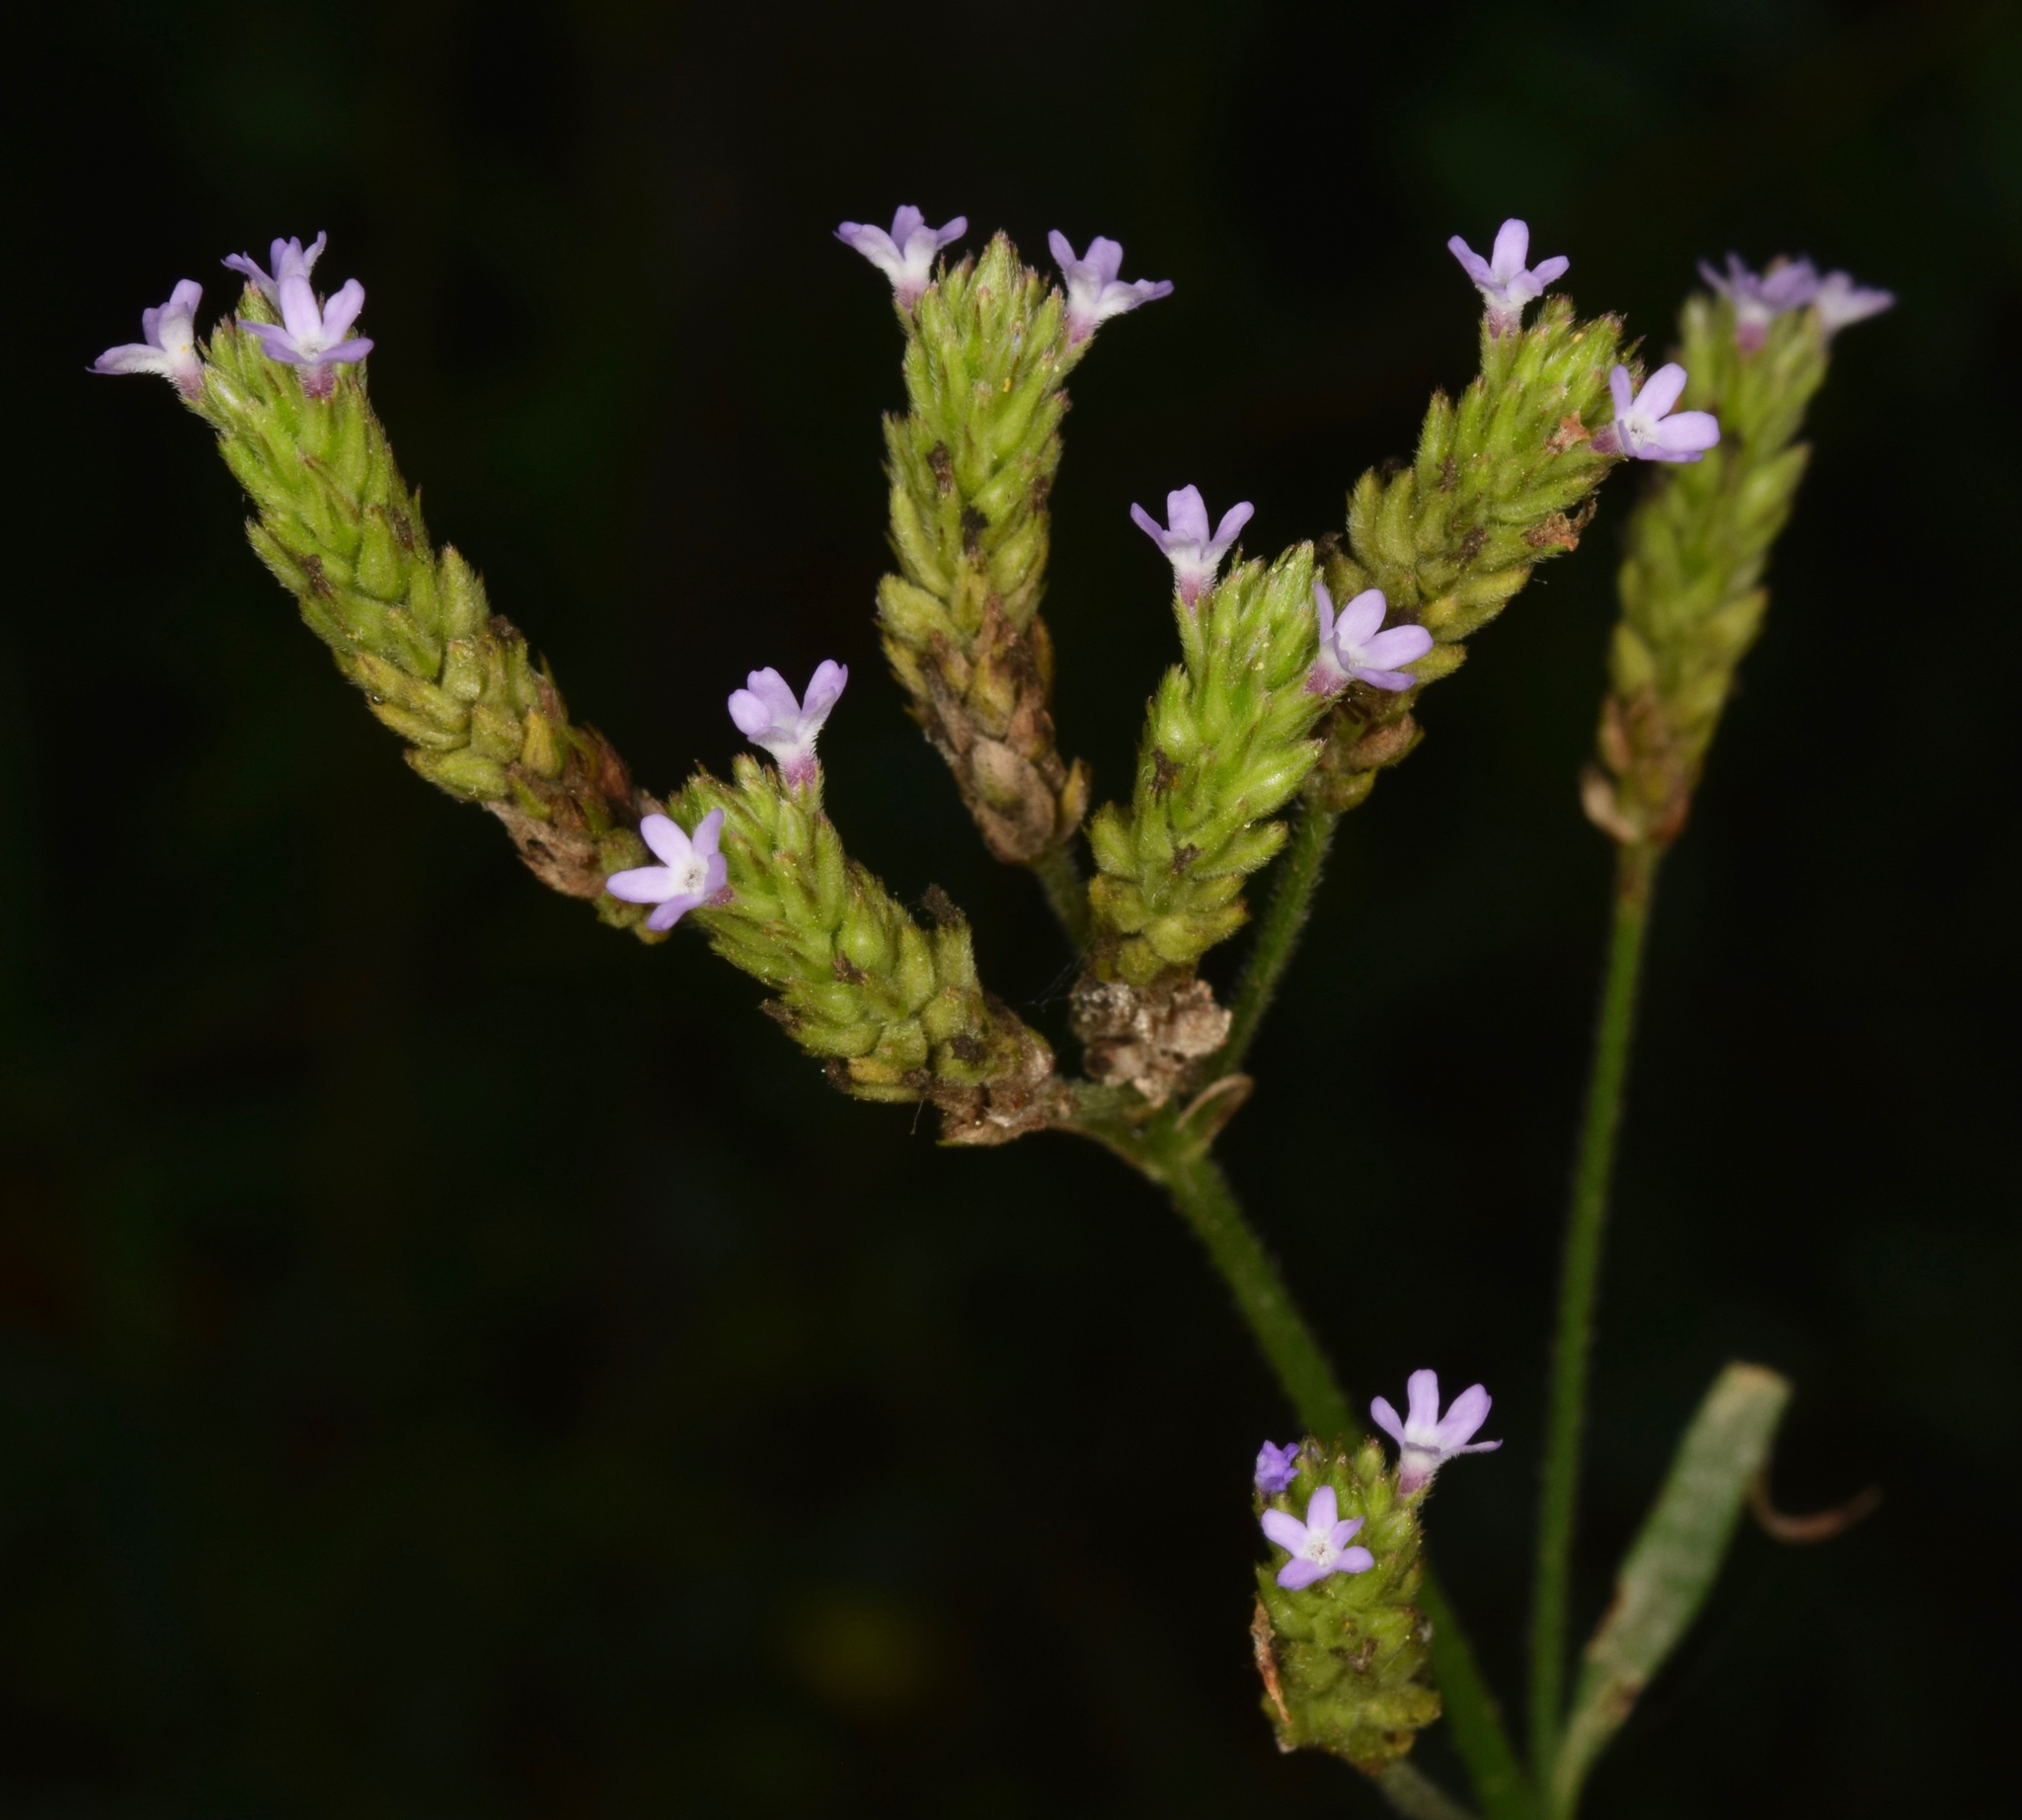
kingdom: Plantae
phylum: Tracheophyta
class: Magnoliopsida
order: Lamiales
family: Verbenaceae
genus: Verbena
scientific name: Verbena brasiliensis
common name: Brazilian vervain
